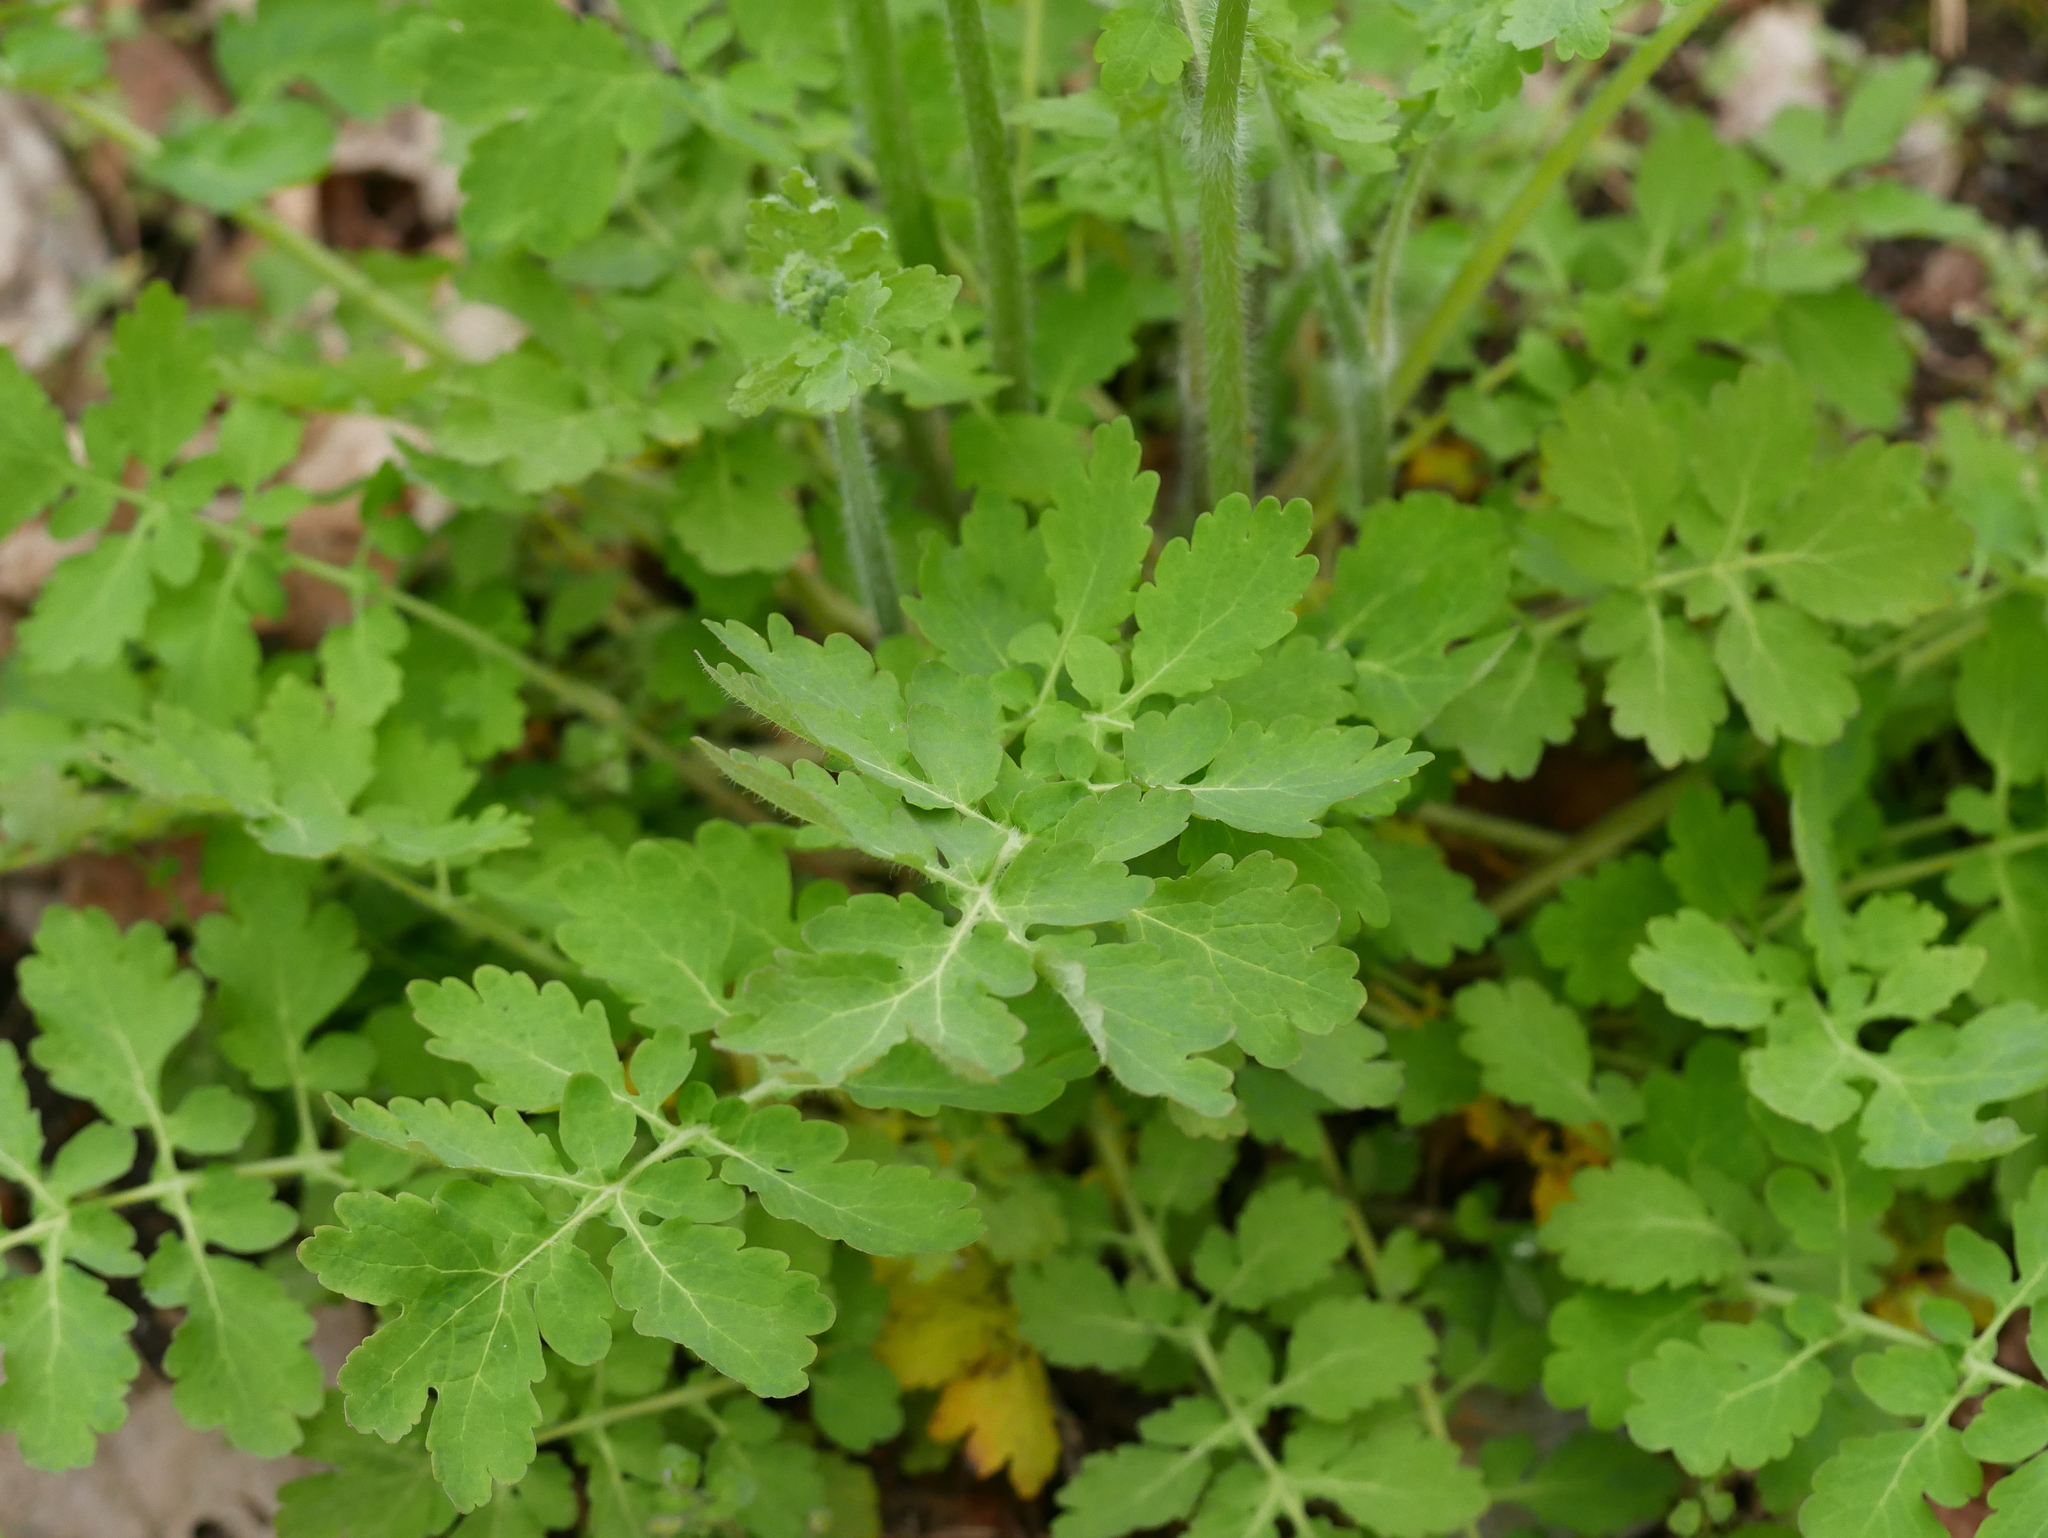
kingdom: Plantae
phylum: Tracheophyta
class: Magnoliopsida
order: Ranunculales
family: Papaveraceae
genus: Chelidonium
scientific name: Chelidonium majus
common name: Greater celandine
